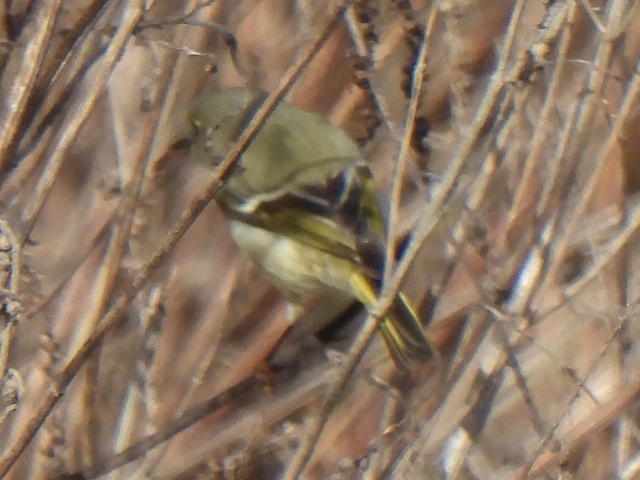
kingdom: Animalia
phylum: Chordata
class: Aves
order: Passeriformes
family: Regulidae
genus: Regulus
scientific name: Regulus calendula
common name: Ruby-crowned kinglet
